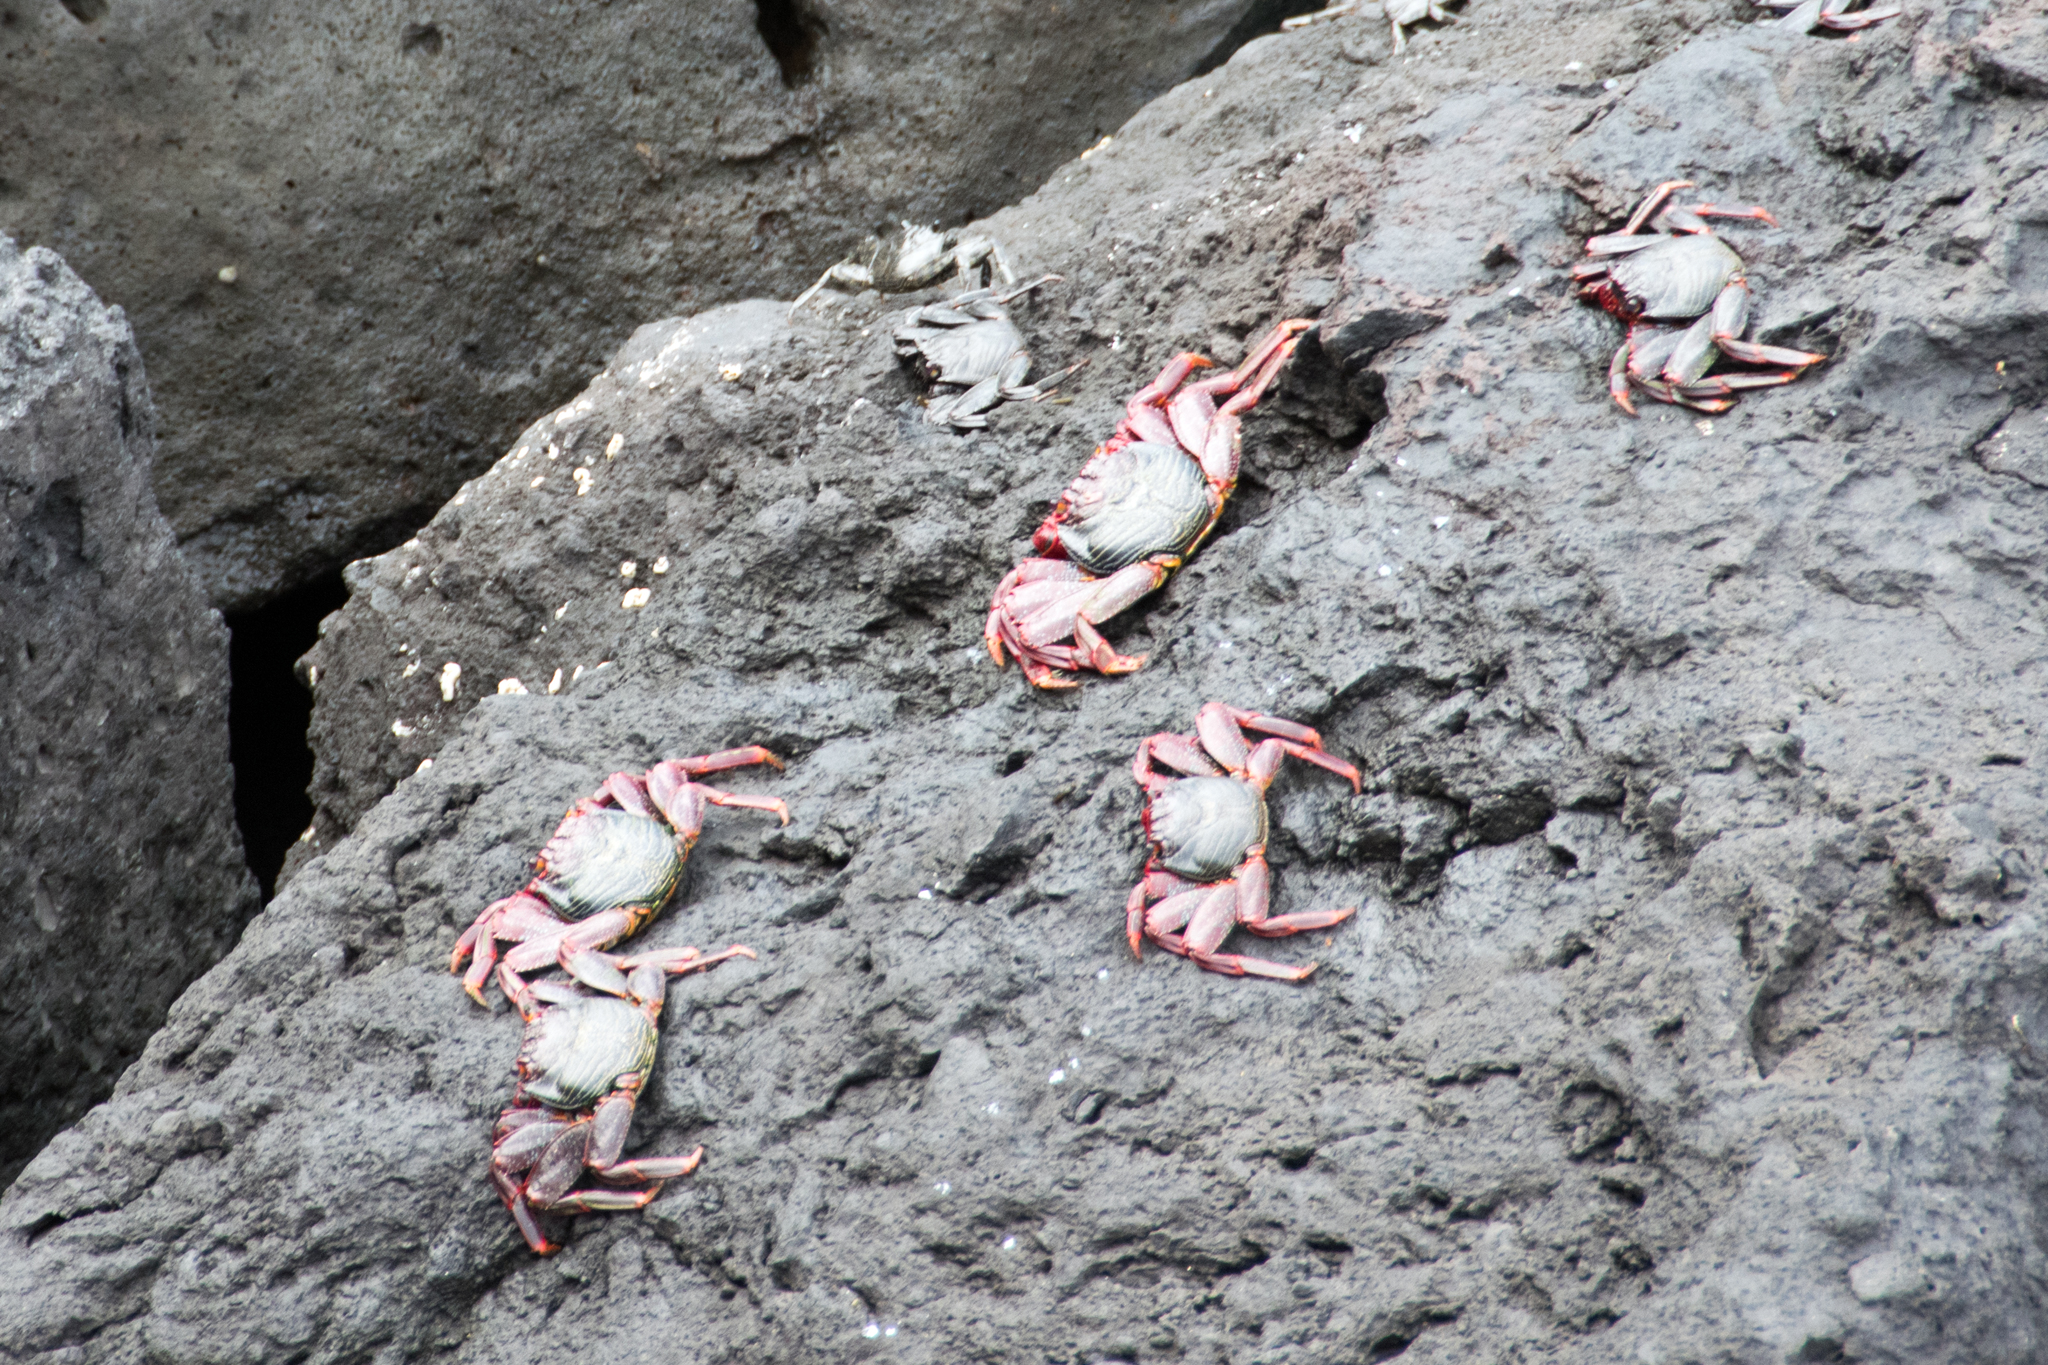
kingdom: Animalia
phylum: Arthropoda
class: Malacostraca
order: Decapoda
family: Grapsidae
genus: Grapsus
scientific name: Grapsus adscensionis
